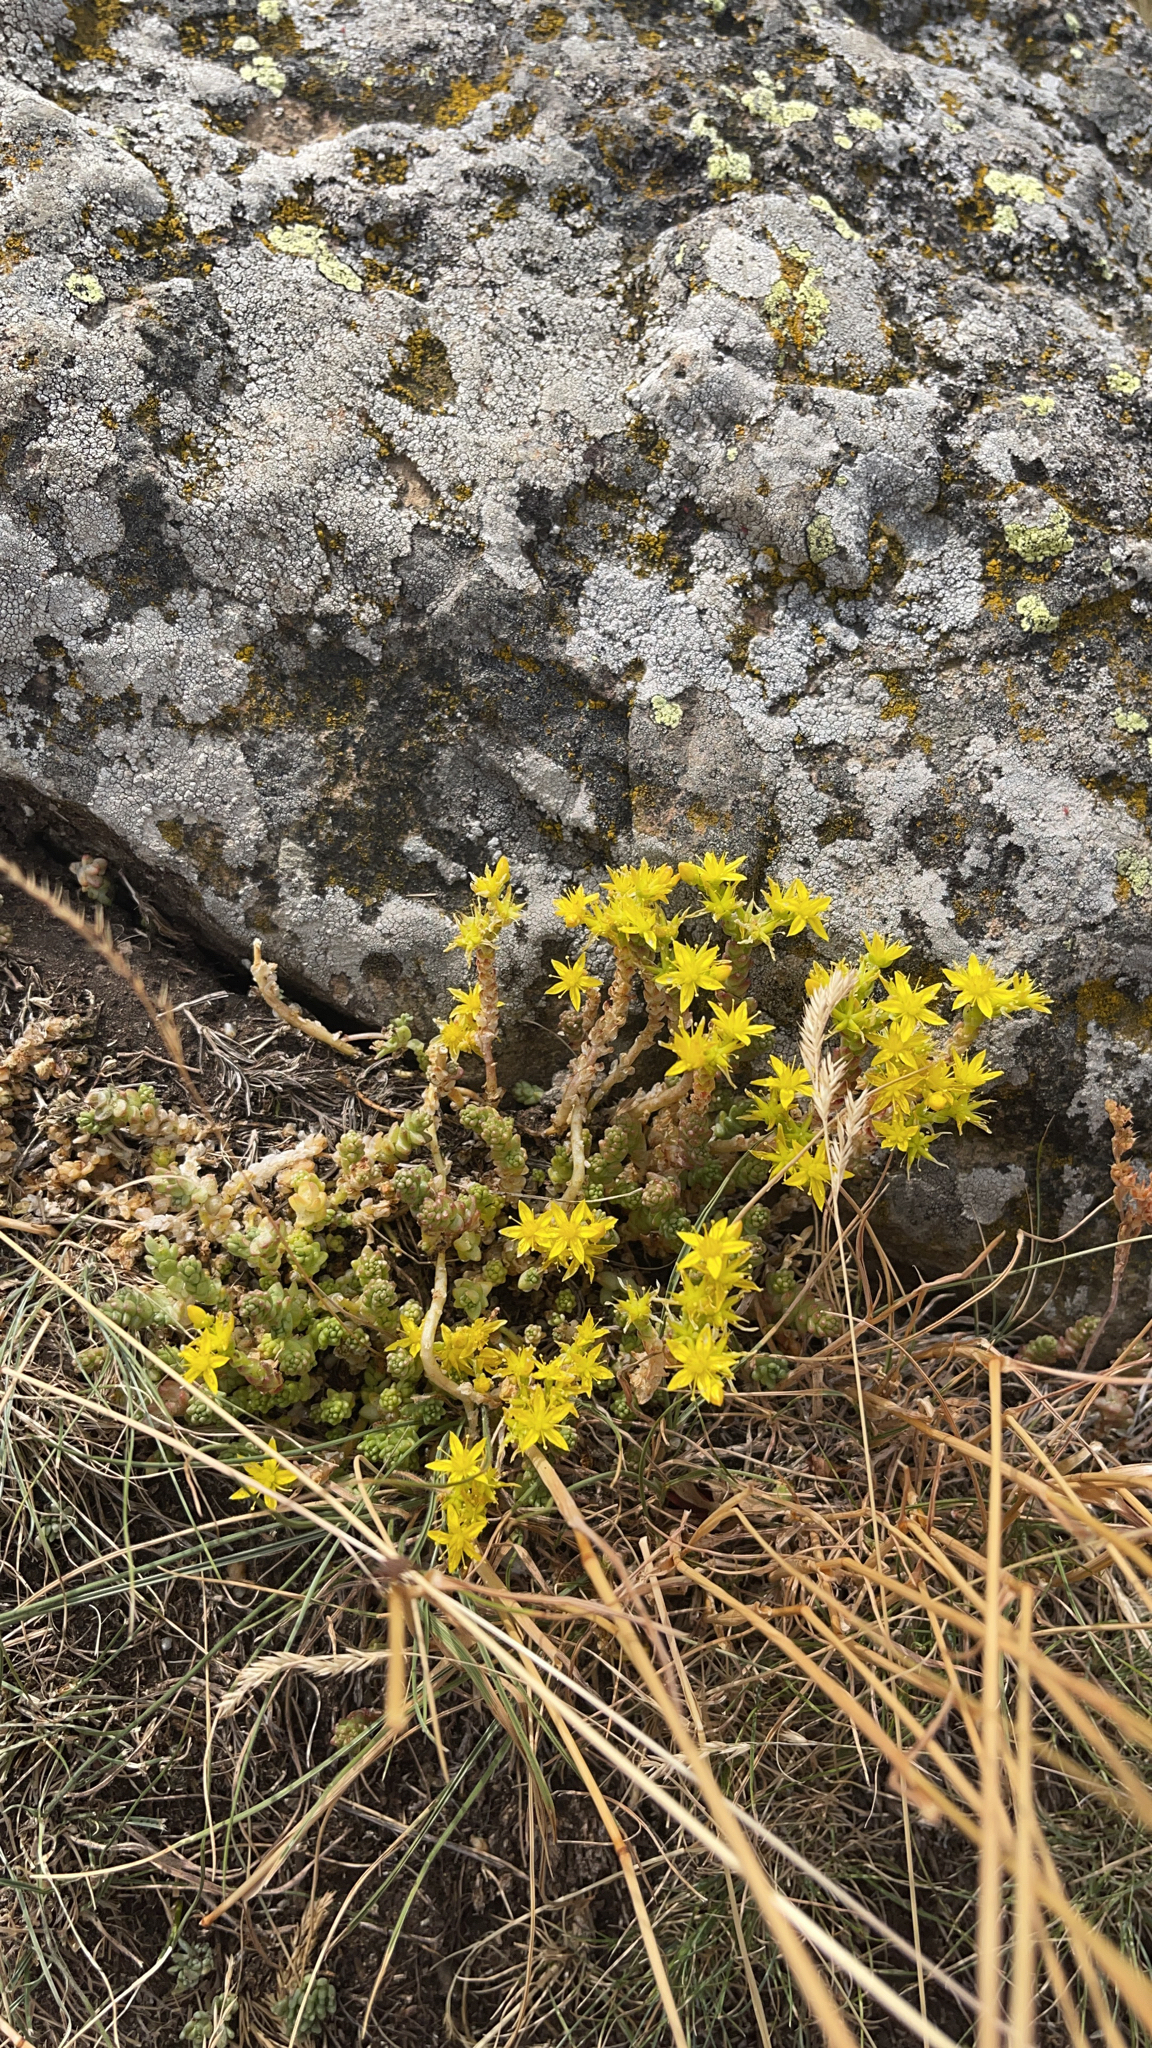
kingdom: Plantae
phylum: Tracheophyta
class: Magnoliopsida
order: Saxifragales
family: Crassulaceae
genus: Sedum
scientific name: Sedum acre
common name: Biting stonecrop
